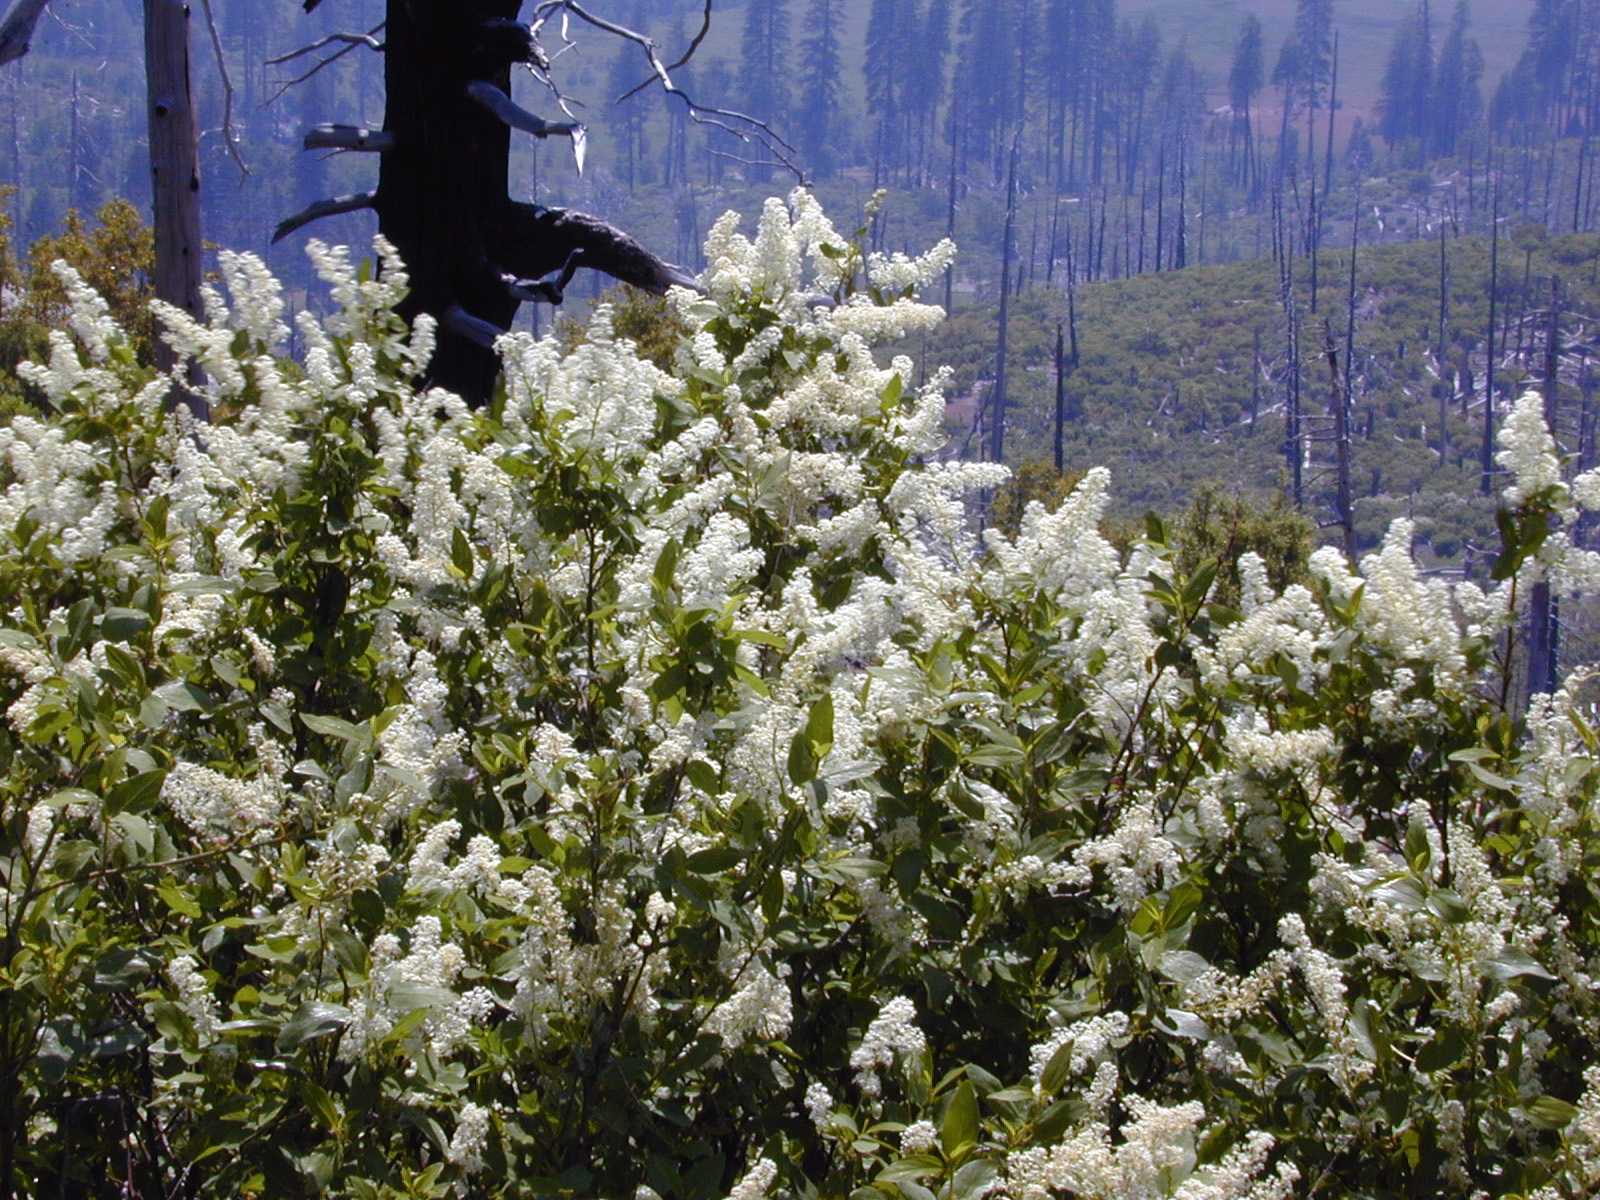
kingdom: Plantae
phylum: Tracheophyta
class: Magnoliopsida
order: Rosales
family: Rhamnaceae
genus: Ceanothus
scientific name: Ceanothus integerrimus
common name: Deerbrush ceanothus
